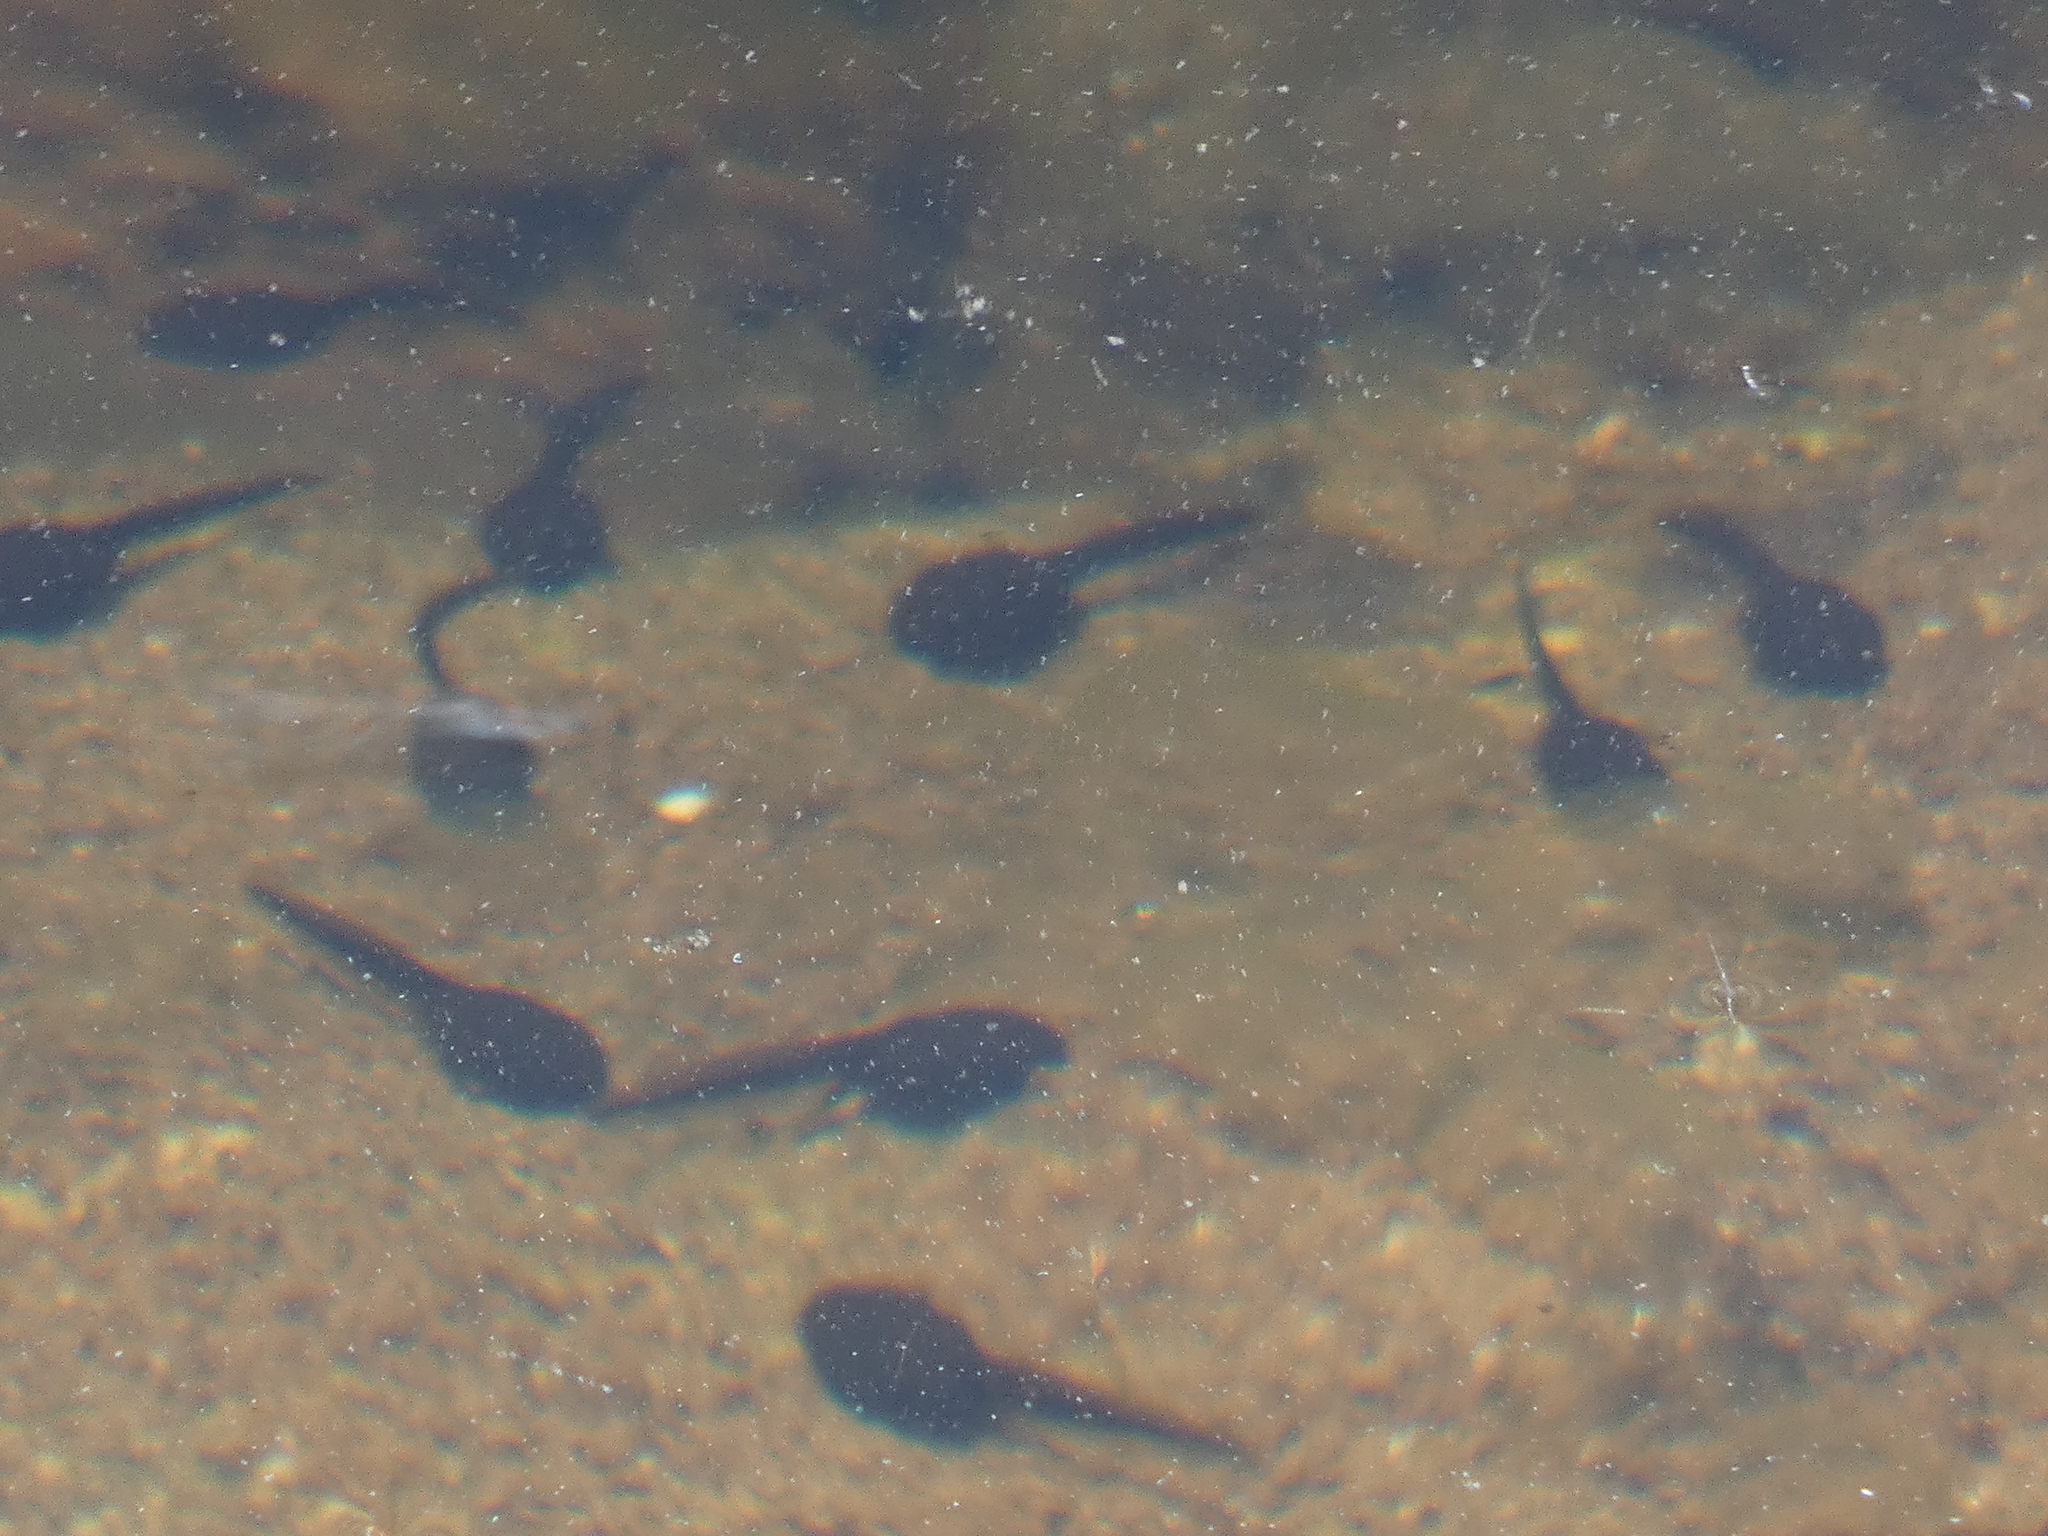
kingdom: Animalia
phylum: Chordata
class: Amphibia
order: Anura
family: Bufonidae
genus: Bufo
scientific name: Bufo spinosus
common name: Western common toad
